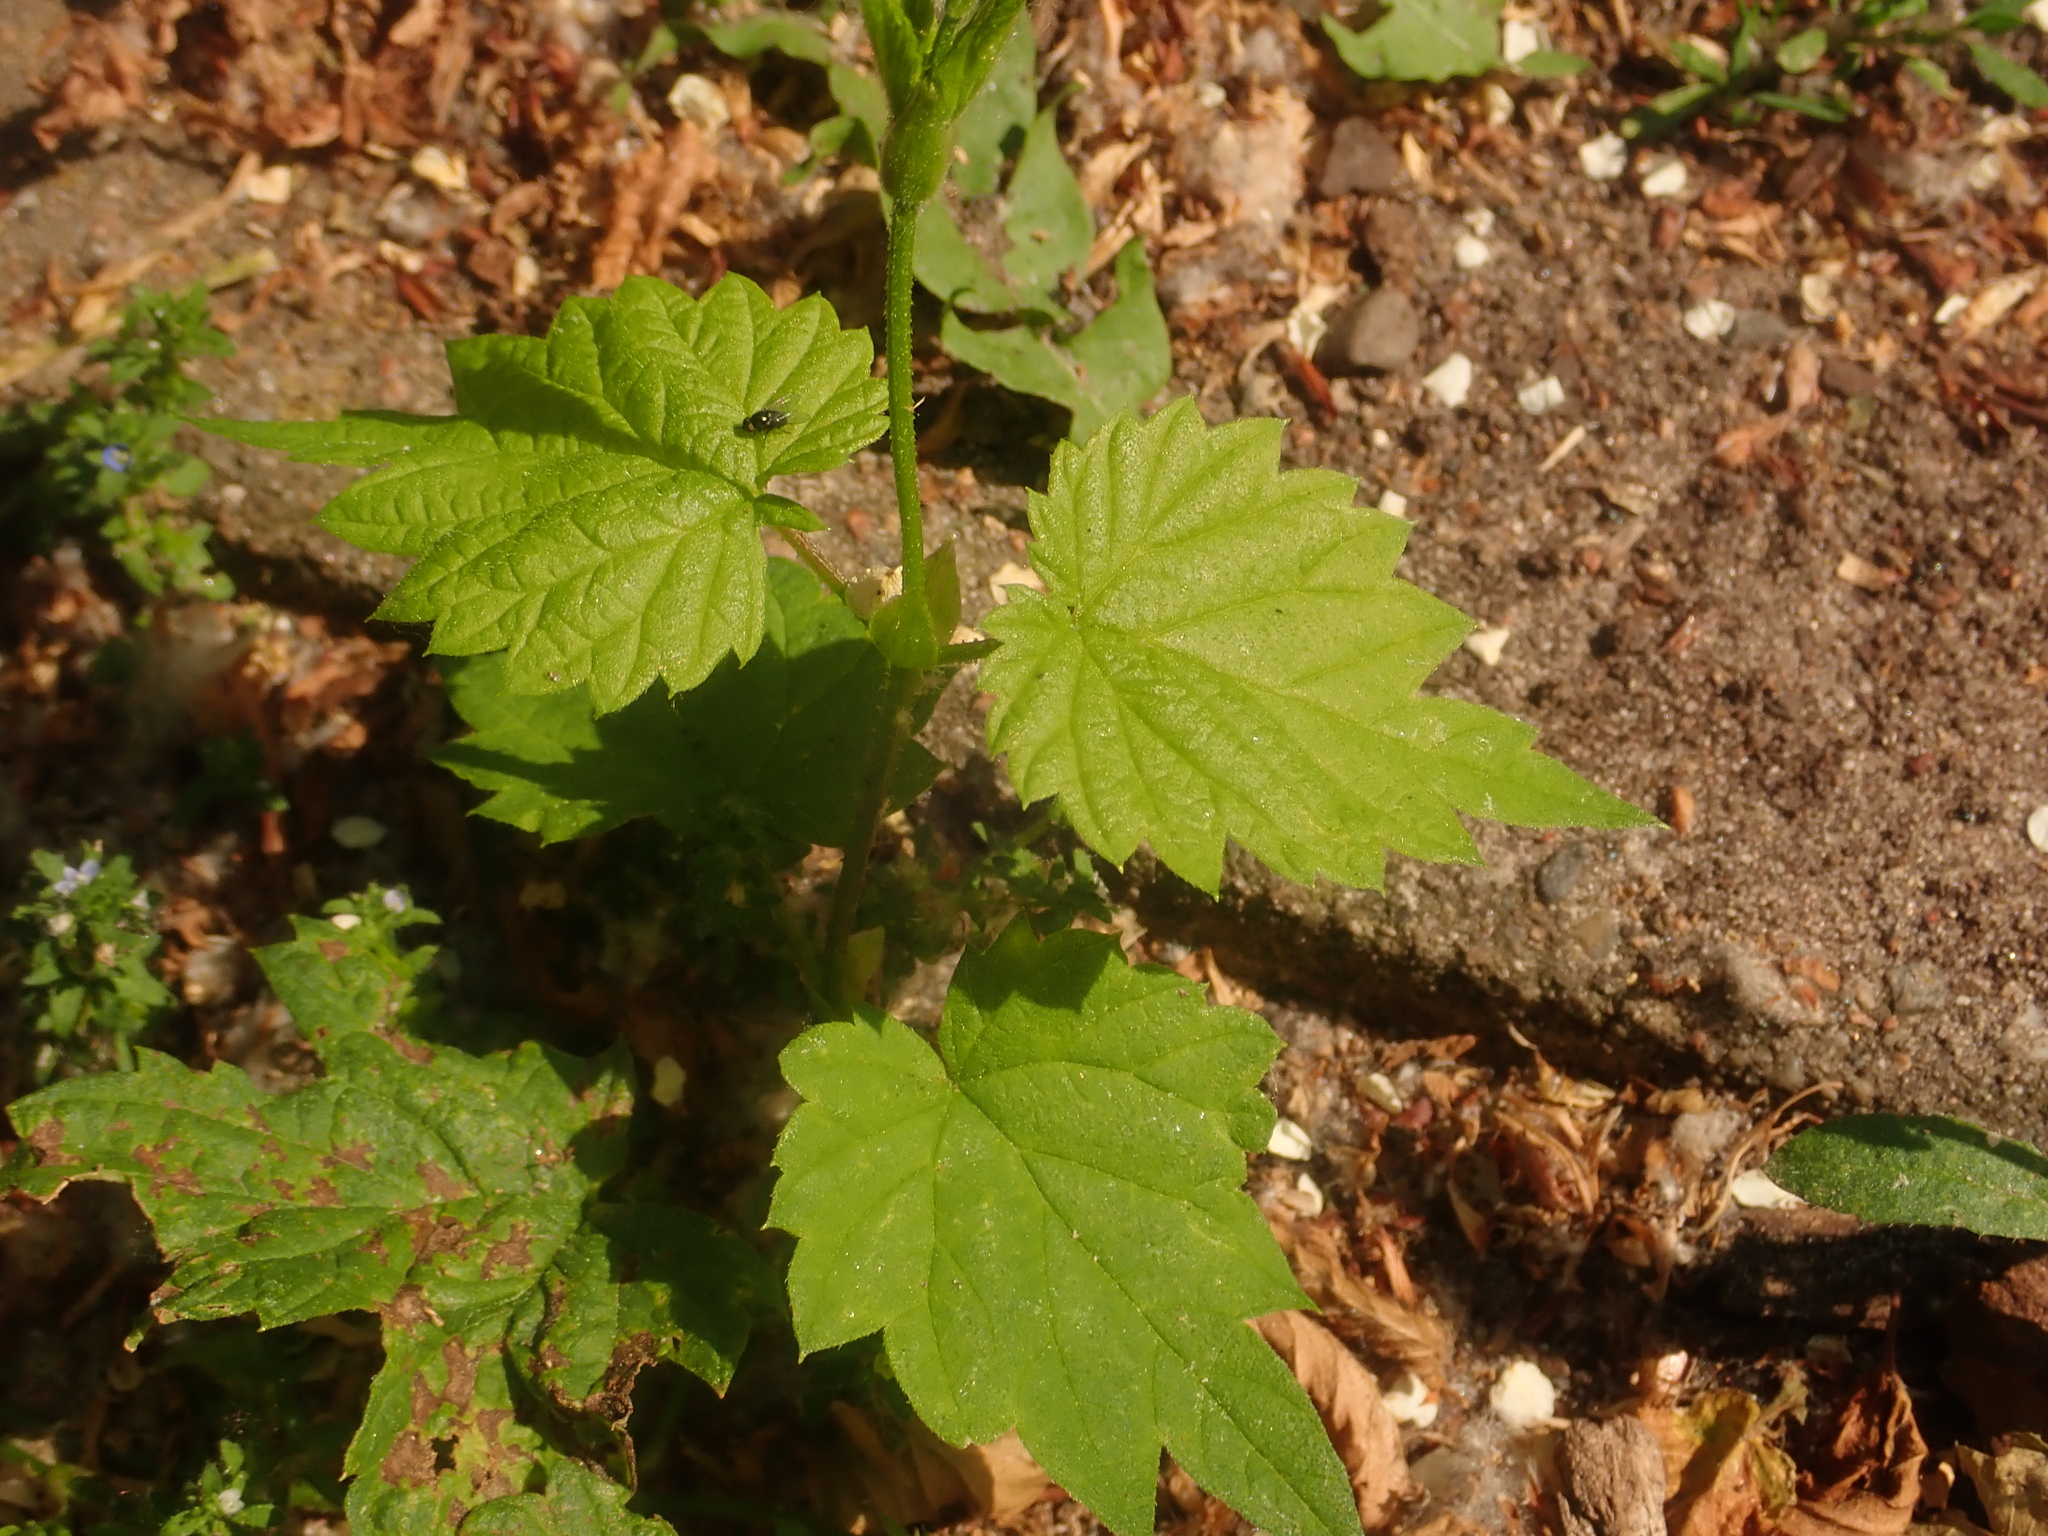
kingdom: Plantae
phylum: Tracheophyta
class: Magnoliopsida
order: Rosales
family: Cannabaceae
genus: Humulus
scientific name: Humulus lupulus
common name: Hop
